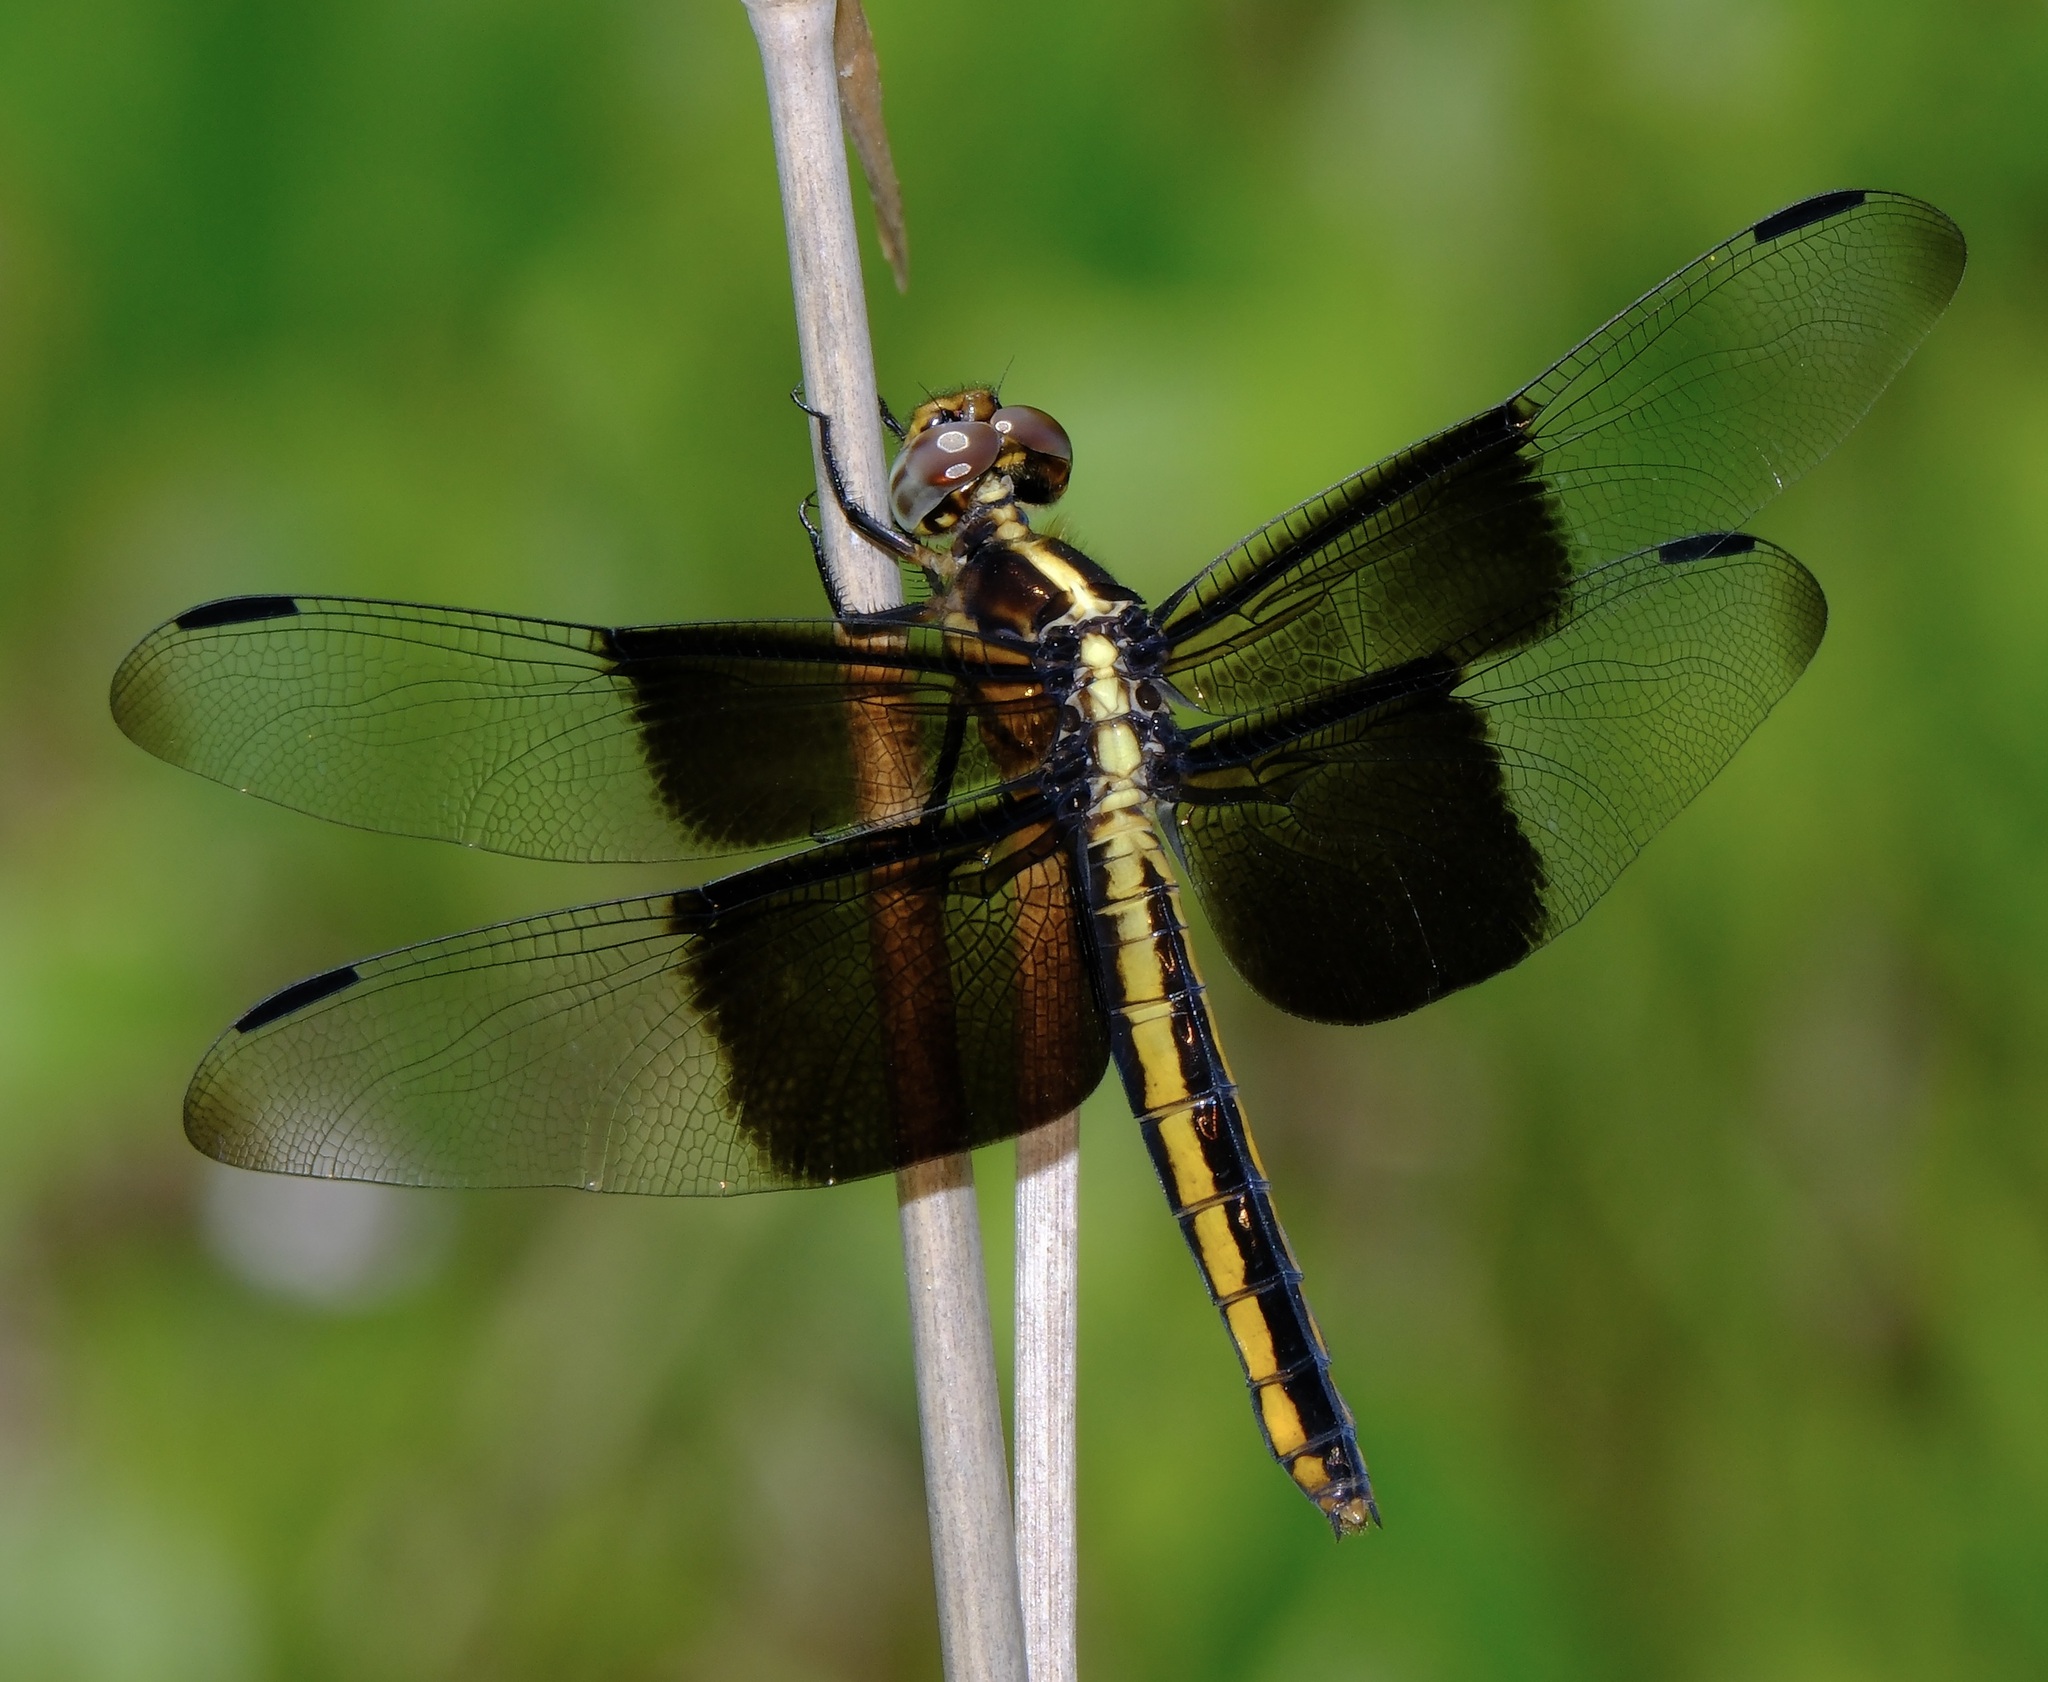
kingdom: Animalia
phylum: Arthropoda
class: Insecta
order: Odonata
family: Libellulidae
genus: Libellula
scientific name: Libellula luctuosa
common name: Widow skimmer
